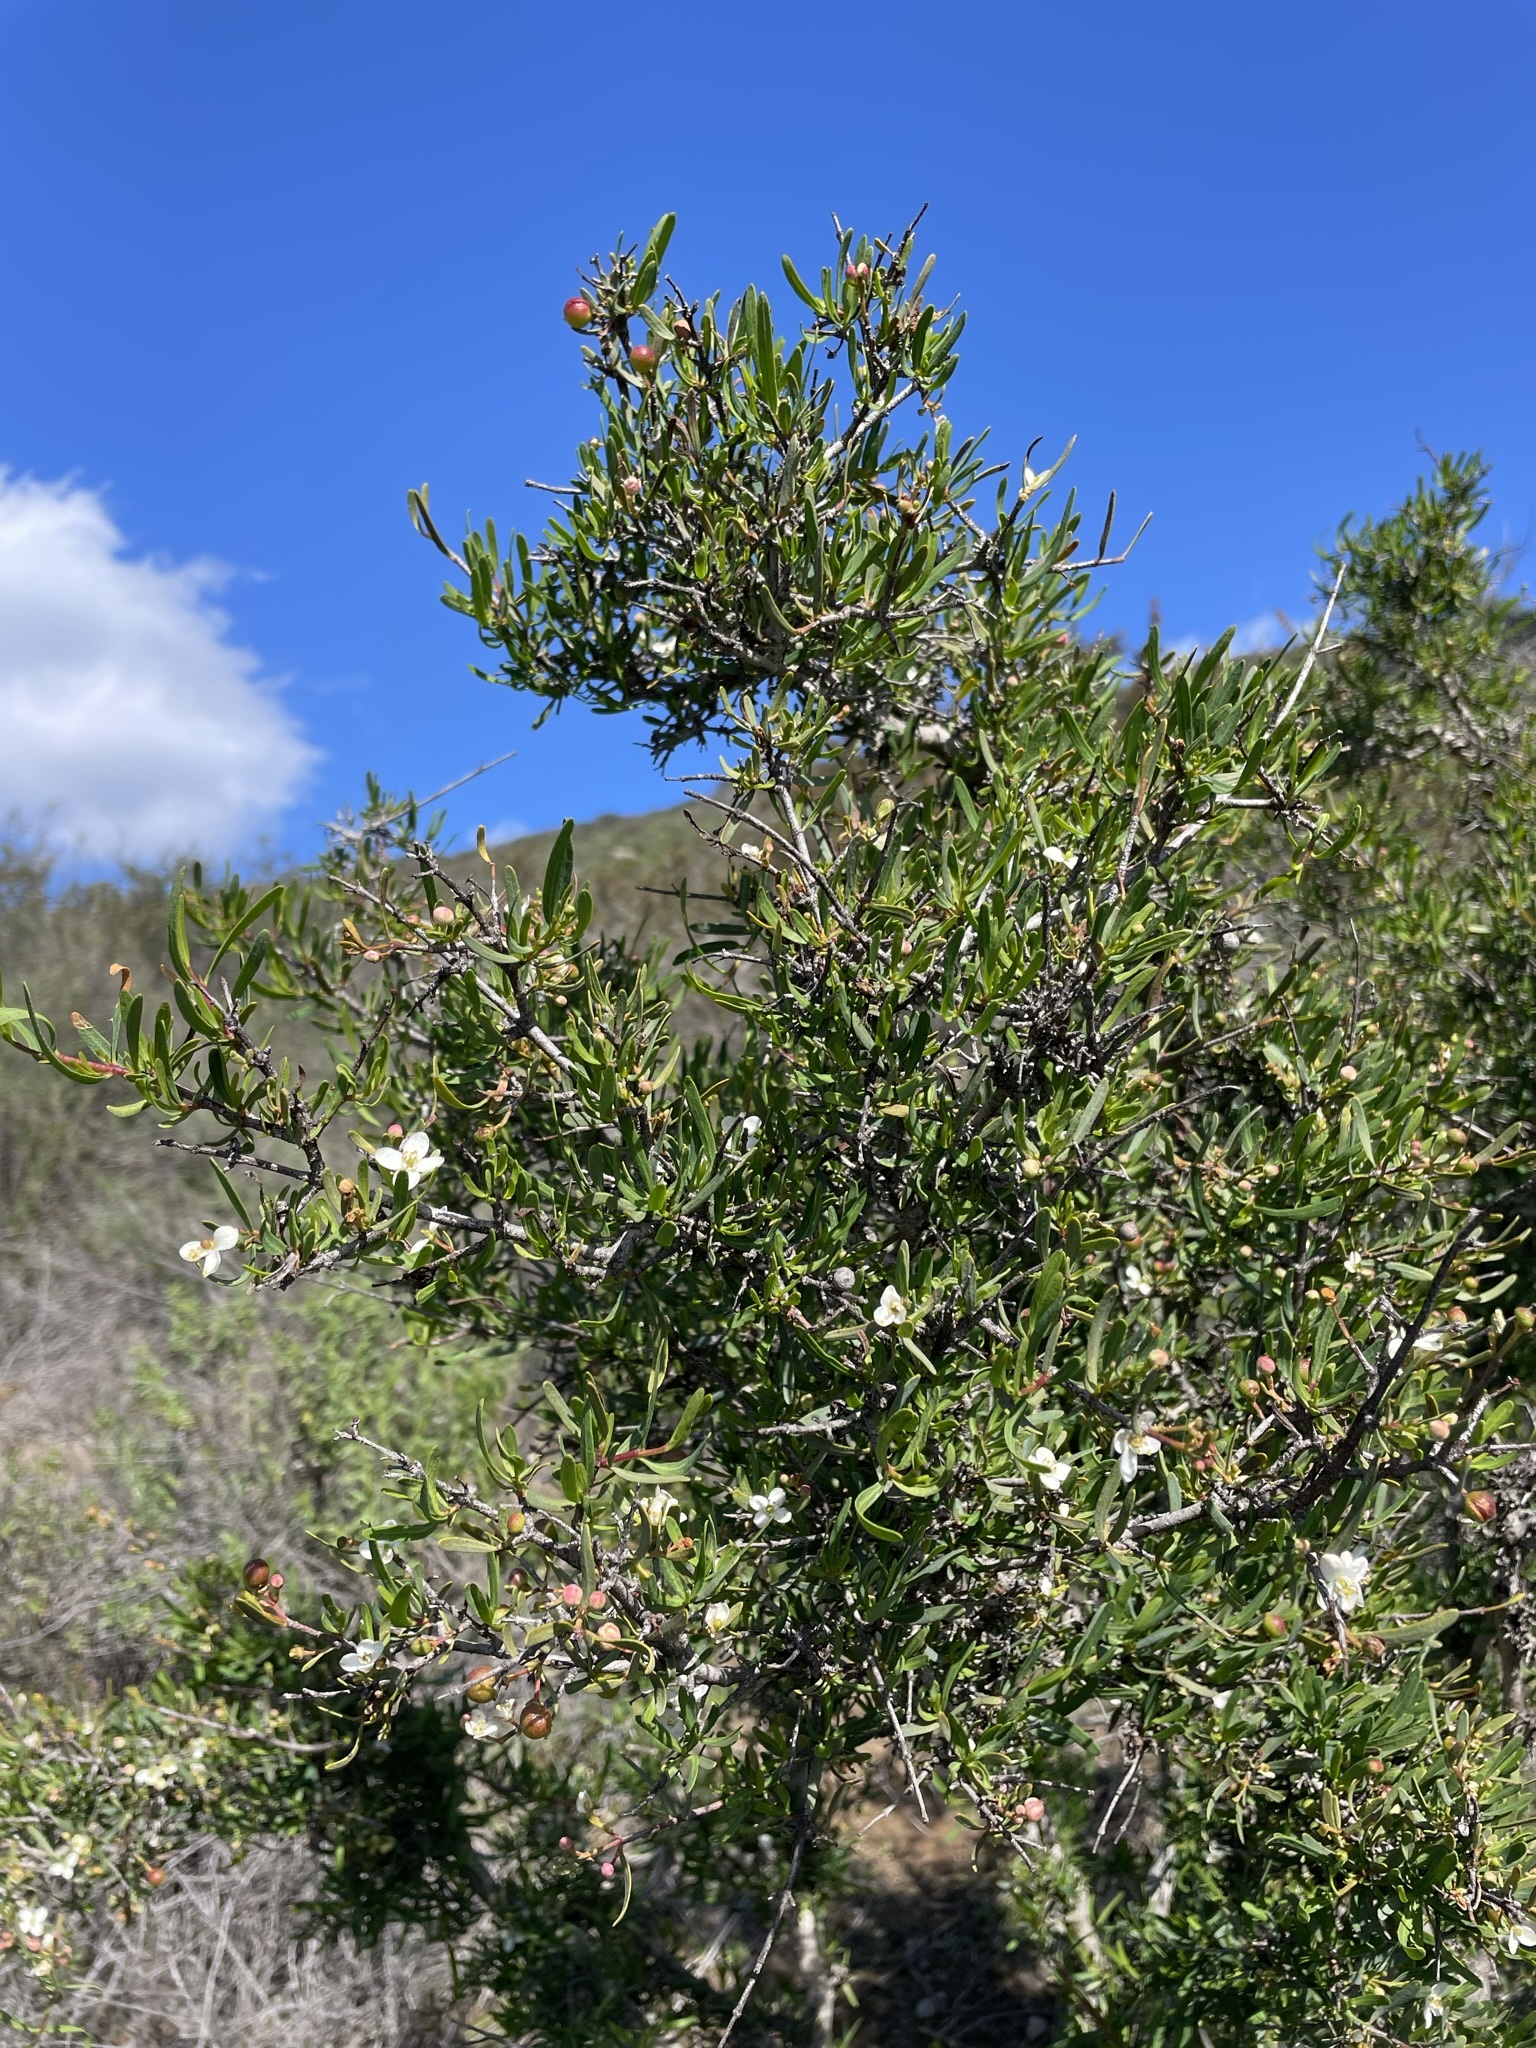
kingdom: Plantae
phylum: Tracheophyta
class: Magnoliopsida
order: Sapindales
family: Rutaceae
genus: Cneoridium
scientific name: Cneoridium dumosum
